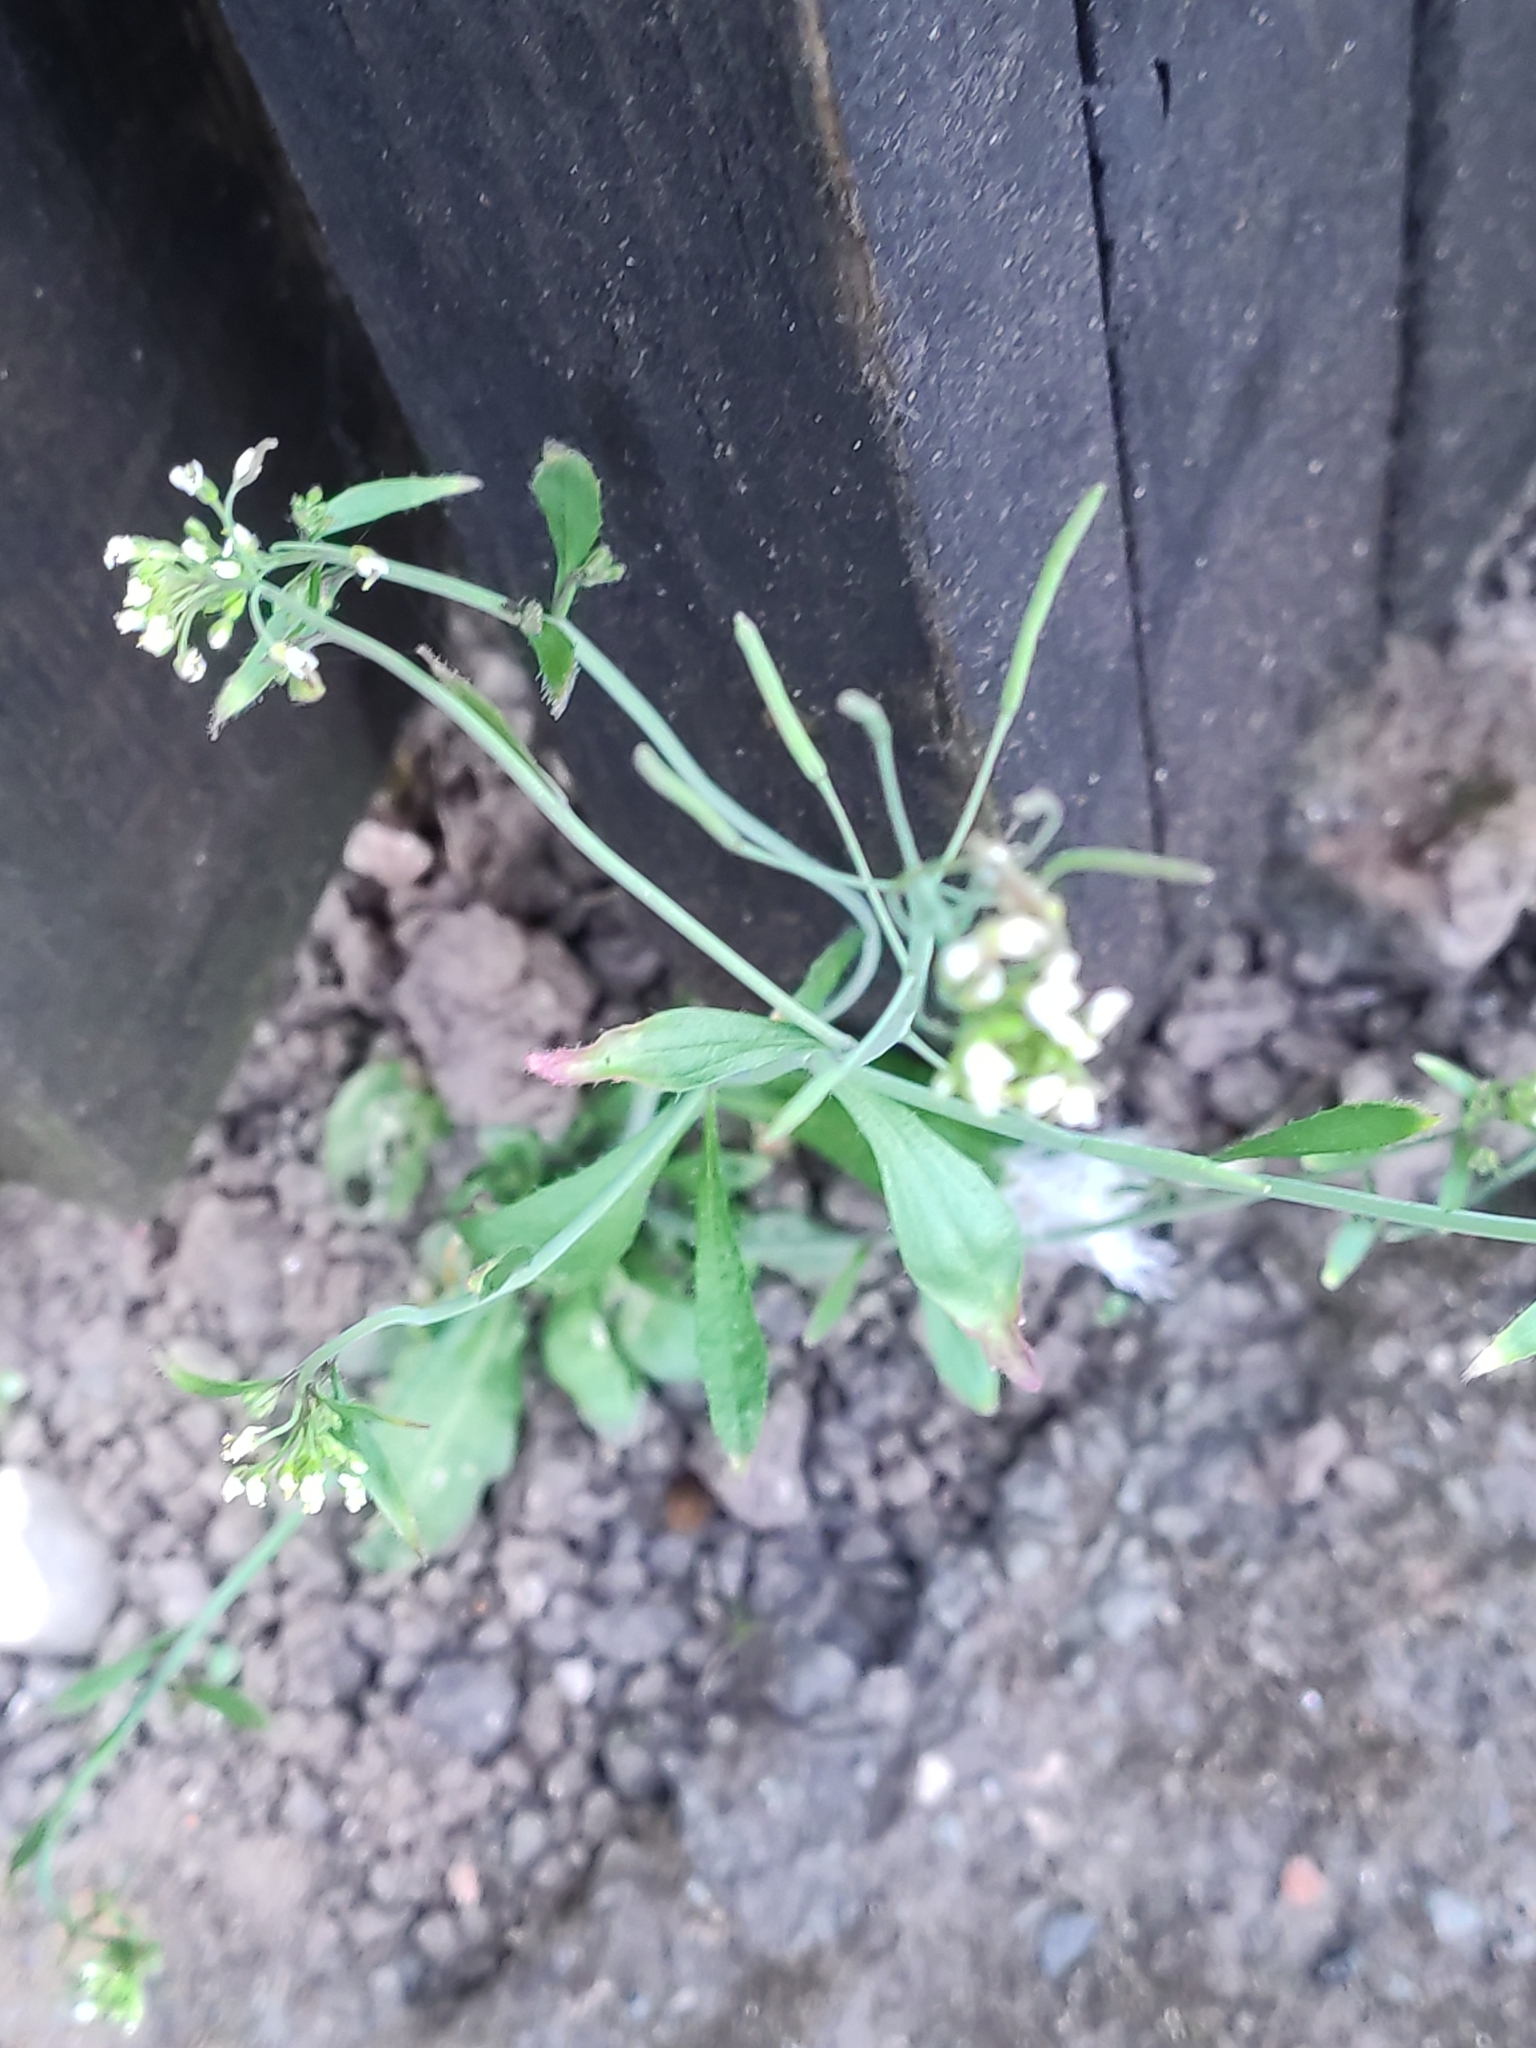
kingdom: Plantae
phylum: Tracheophyta
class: Magnoliopsida
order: Brassicales
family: Brassicaceae
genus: Arabidopsis
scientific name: Arabidopsis thaliana
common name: Thale cress
